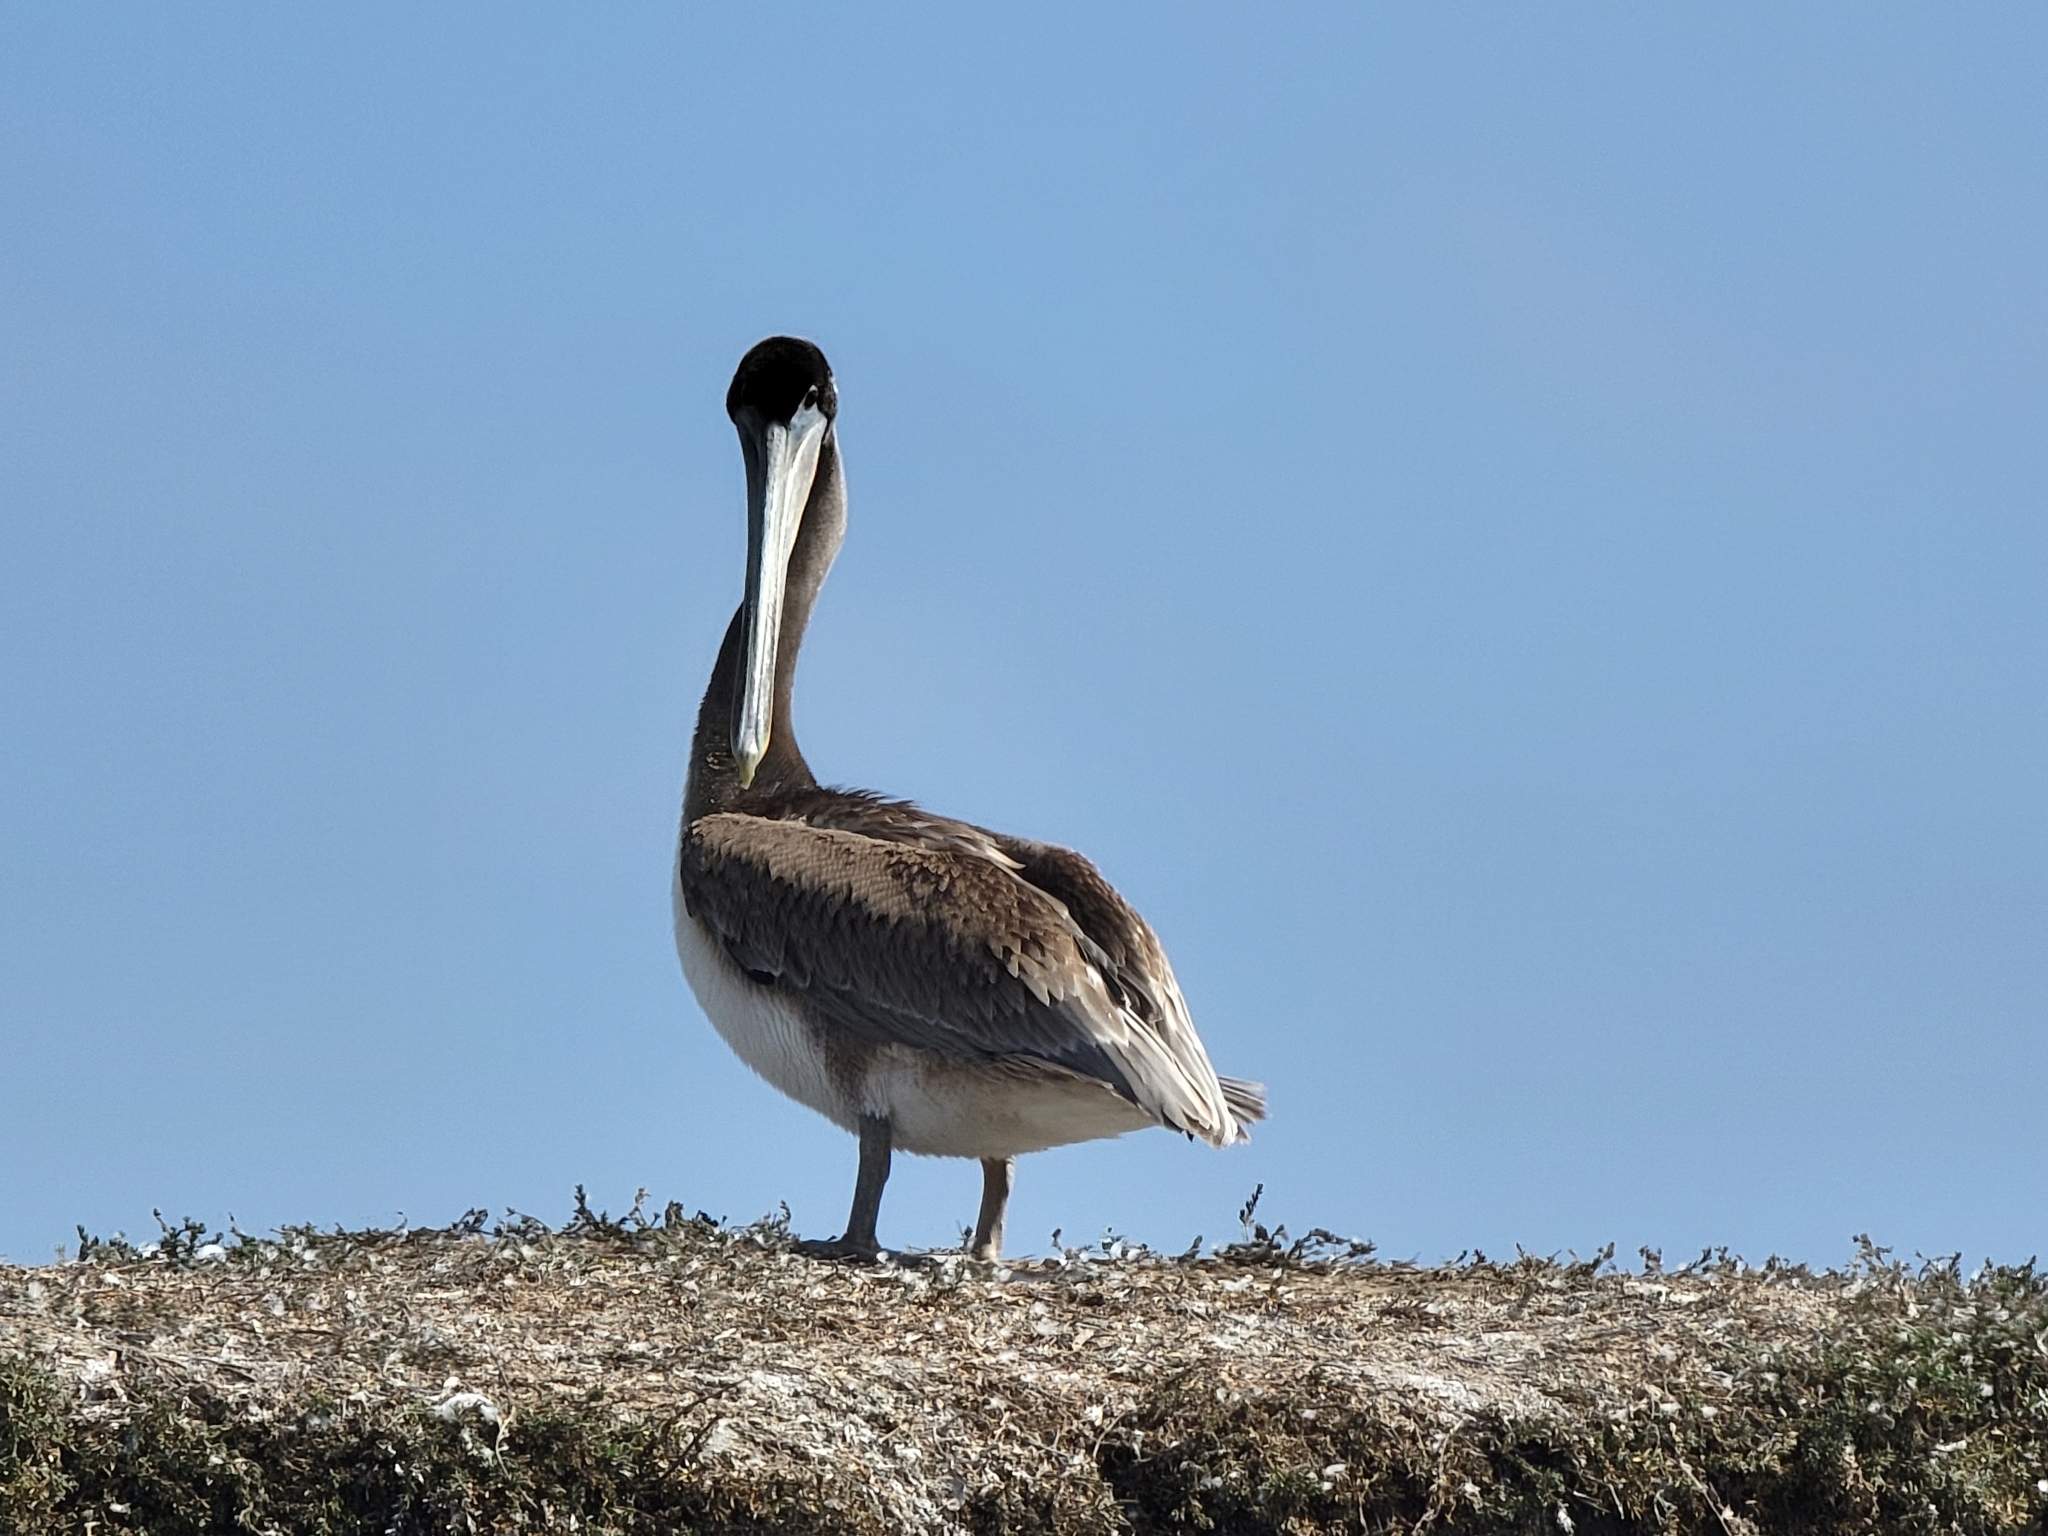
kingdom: Animalia
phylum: Chordata
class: Aves
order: Pelecaniformes
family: Pelecanidae
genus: Pelecanus
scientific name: Pelecanus occidentalis
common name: Brown pelican
